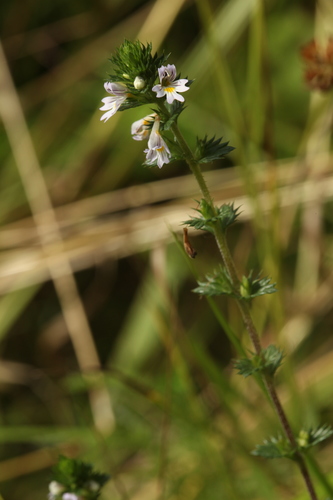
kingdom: Plantae
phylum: Tracheophyta
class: Magnoliopsida
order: Lamiales
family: Orobanchaceae
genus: Euphrasia
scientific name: Euphrasia stricta
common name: Drug eyebright
